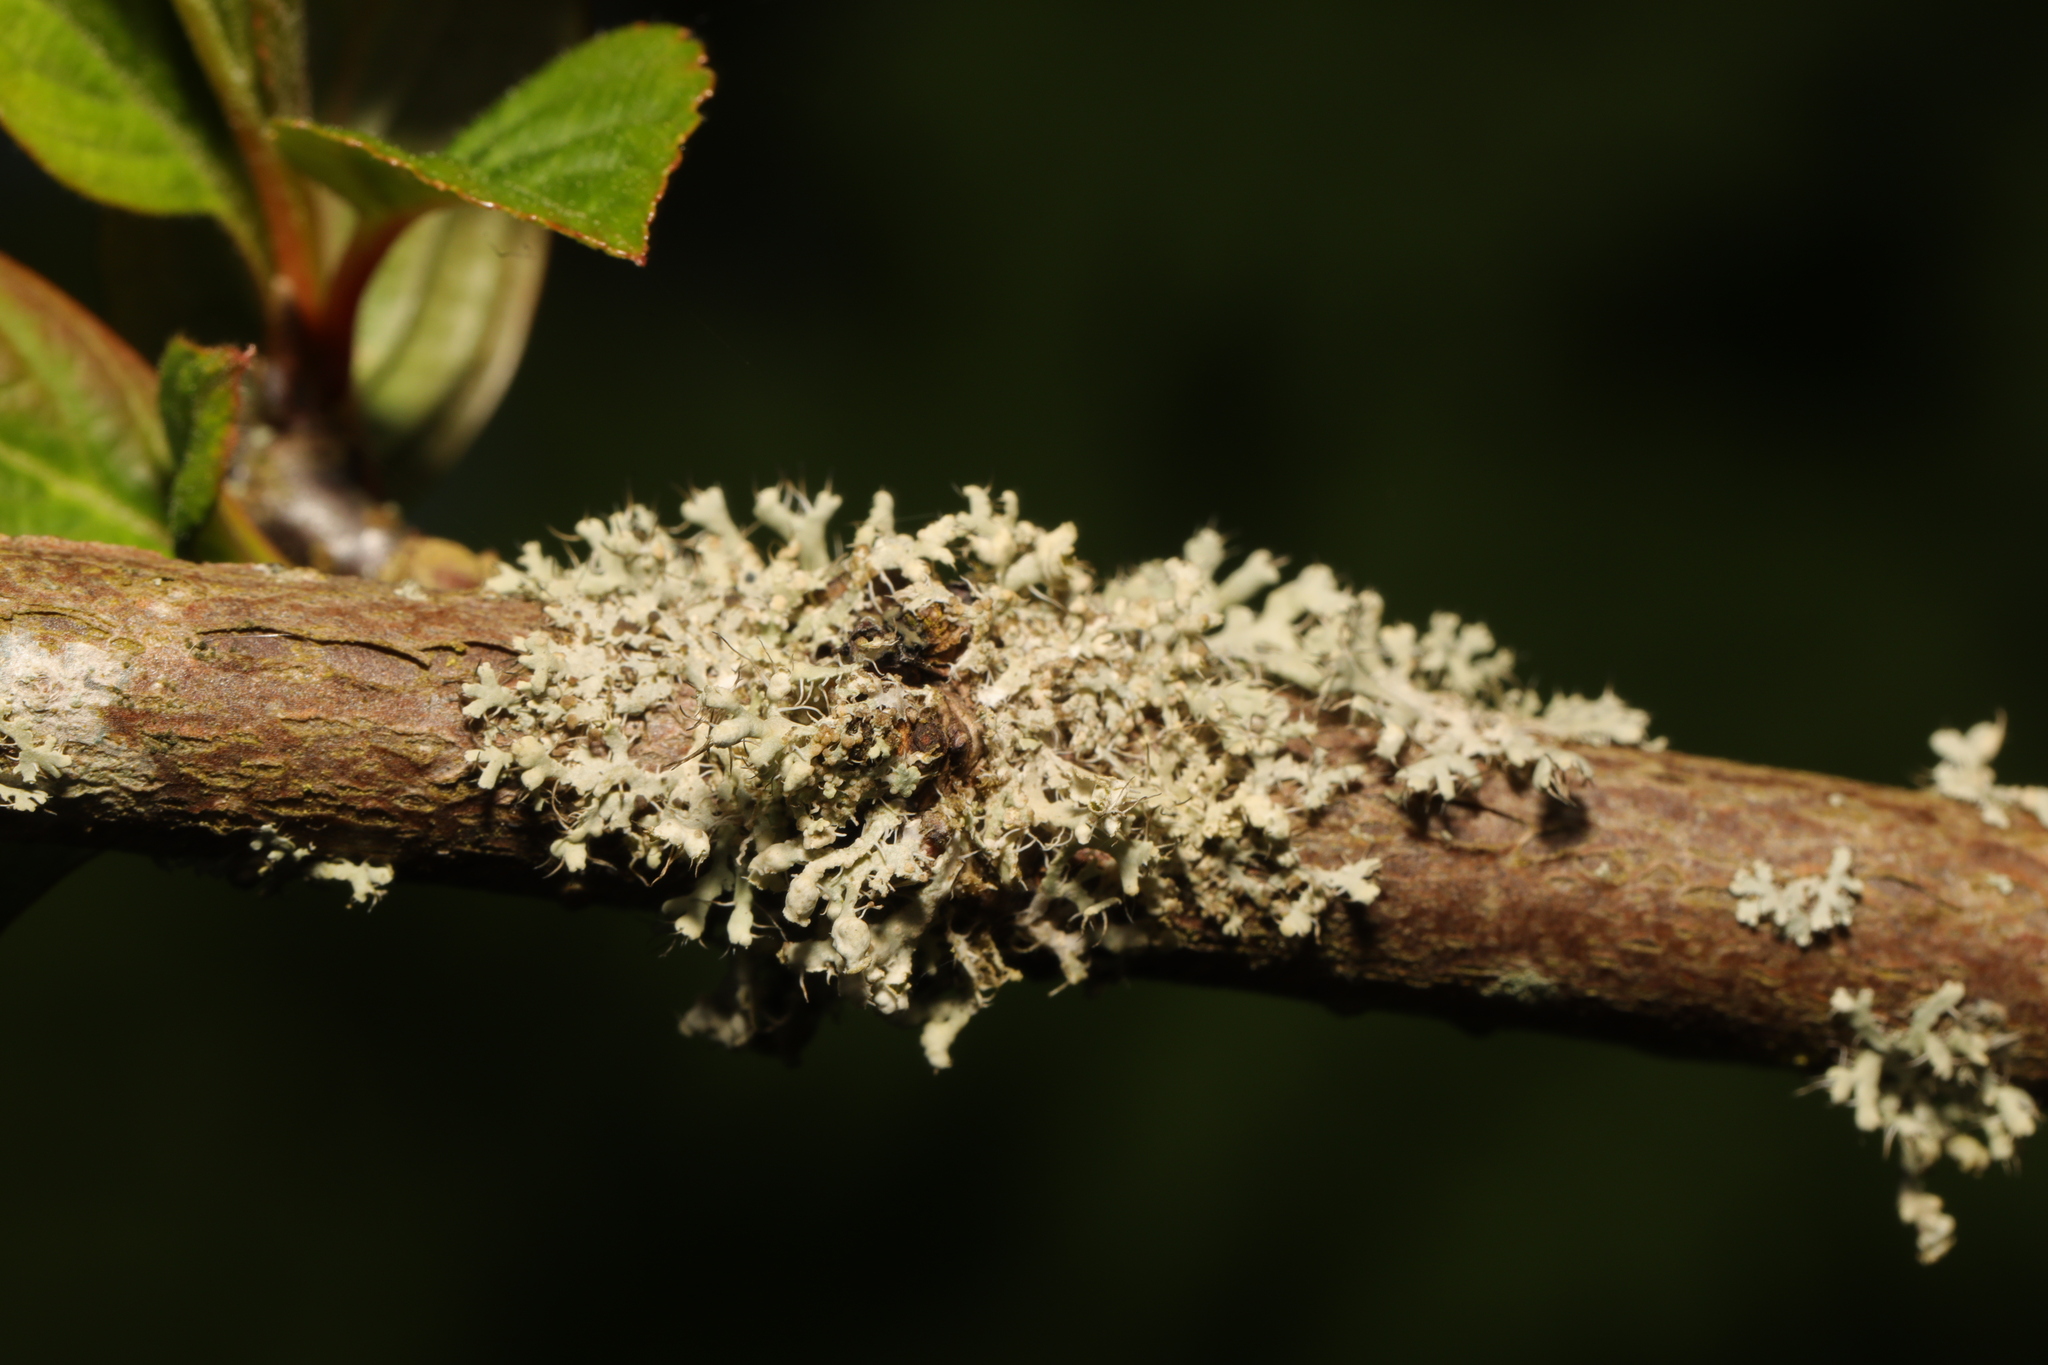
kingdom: Fungi
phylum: Ascomycota
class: Lecanoromycetes
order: Caliciales
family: Physciaceae
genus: Physcia
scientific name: Physcia adscendens
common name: Hooded rosette lichen
